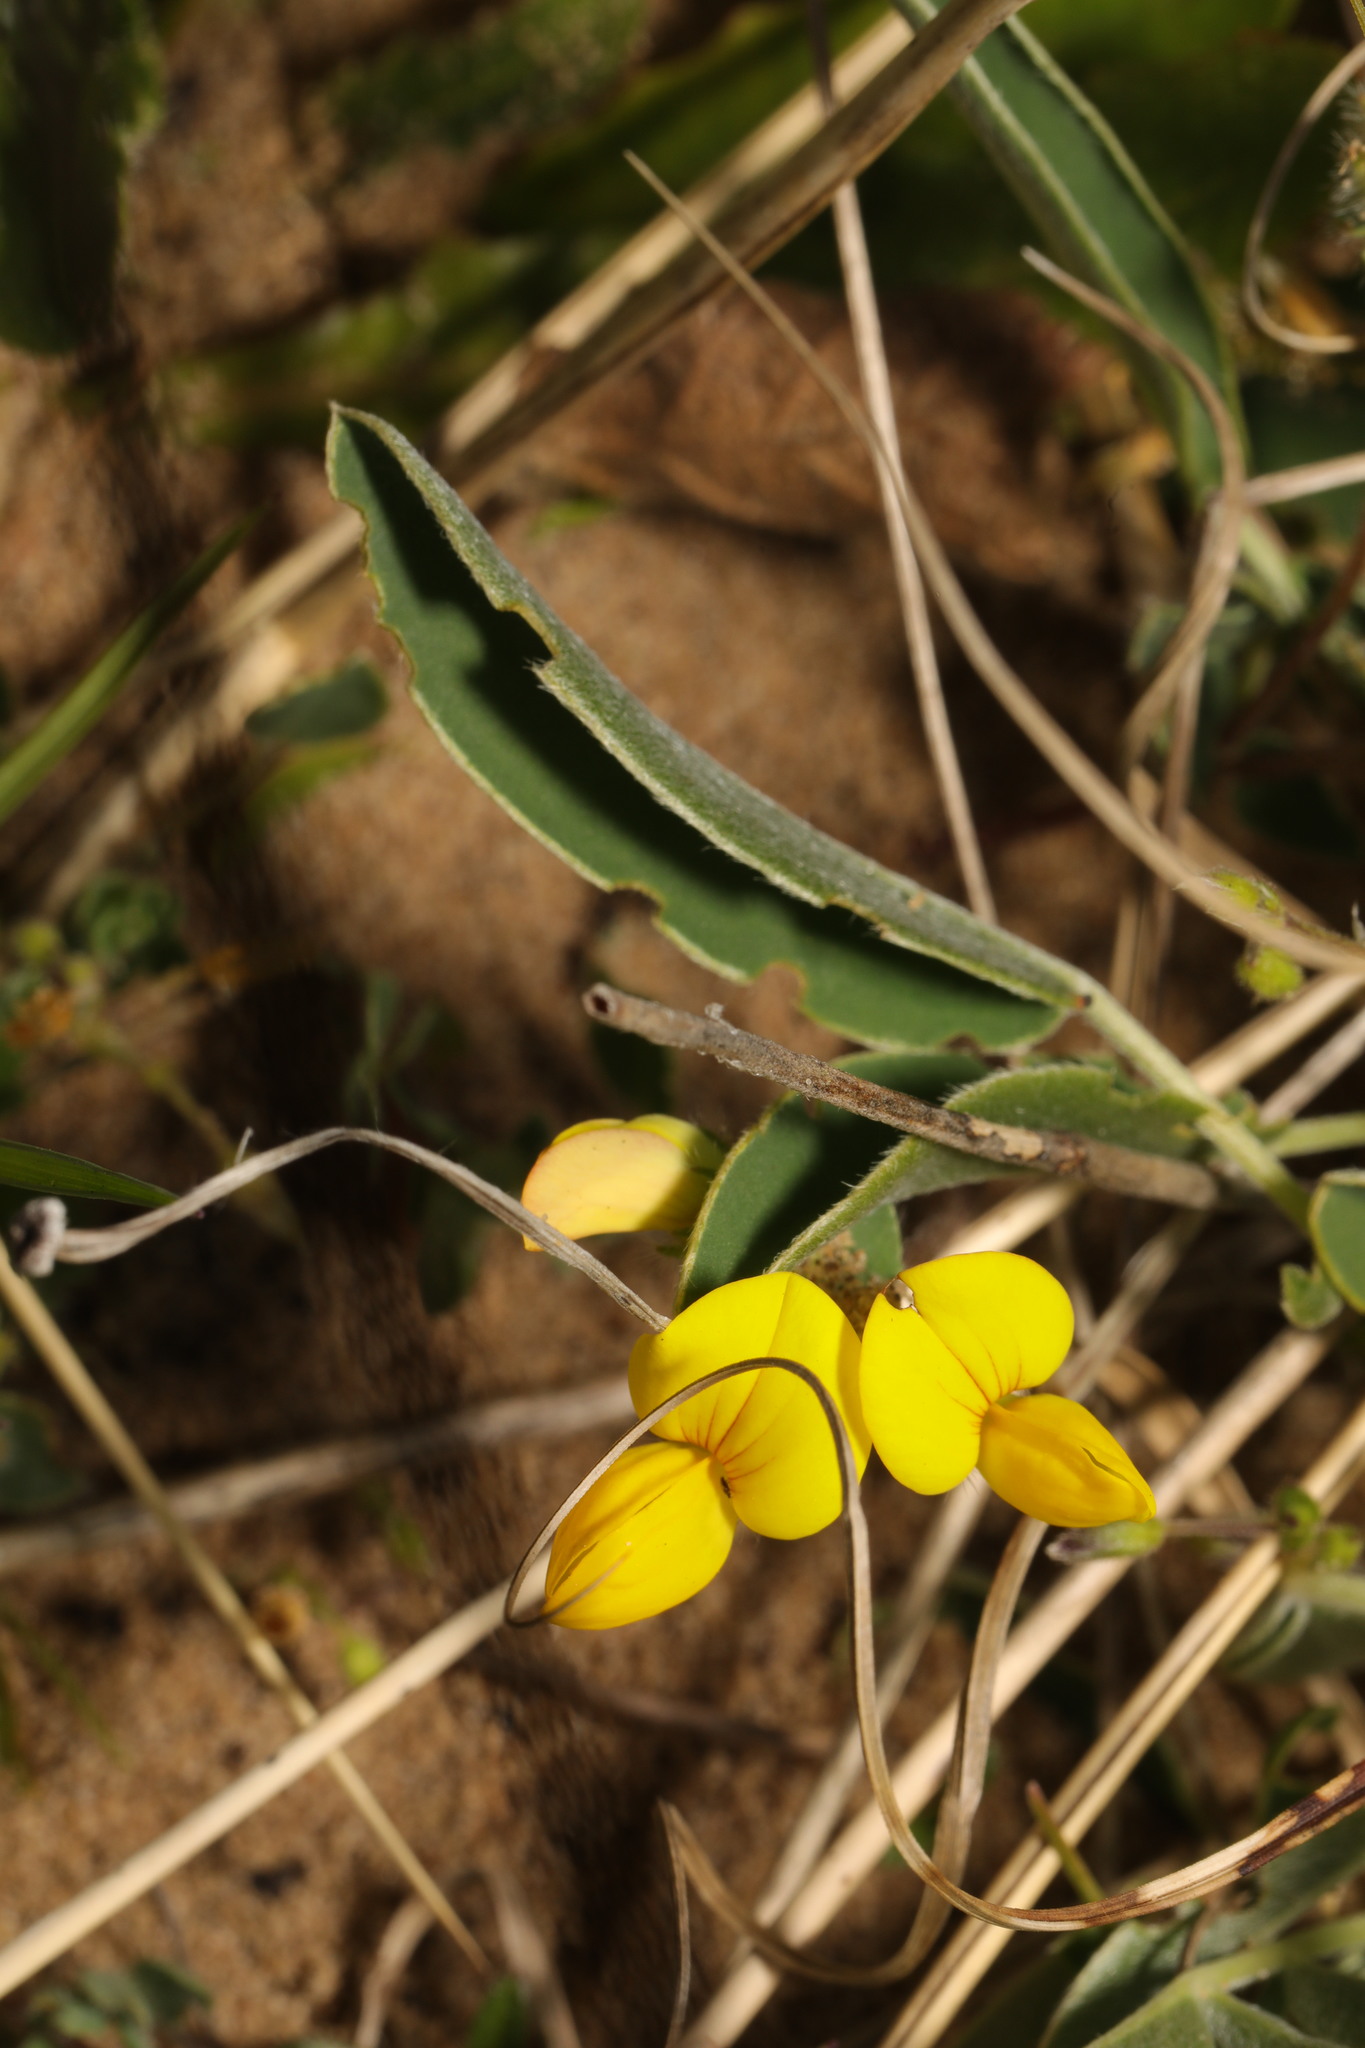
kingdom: Plantae
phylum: Tracheophyta
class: Magnoliopsida
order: Fabales
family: Fabaceae
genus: Lotus
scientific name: Lotus corniculatus
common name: Common bird's-foot-trefoil
